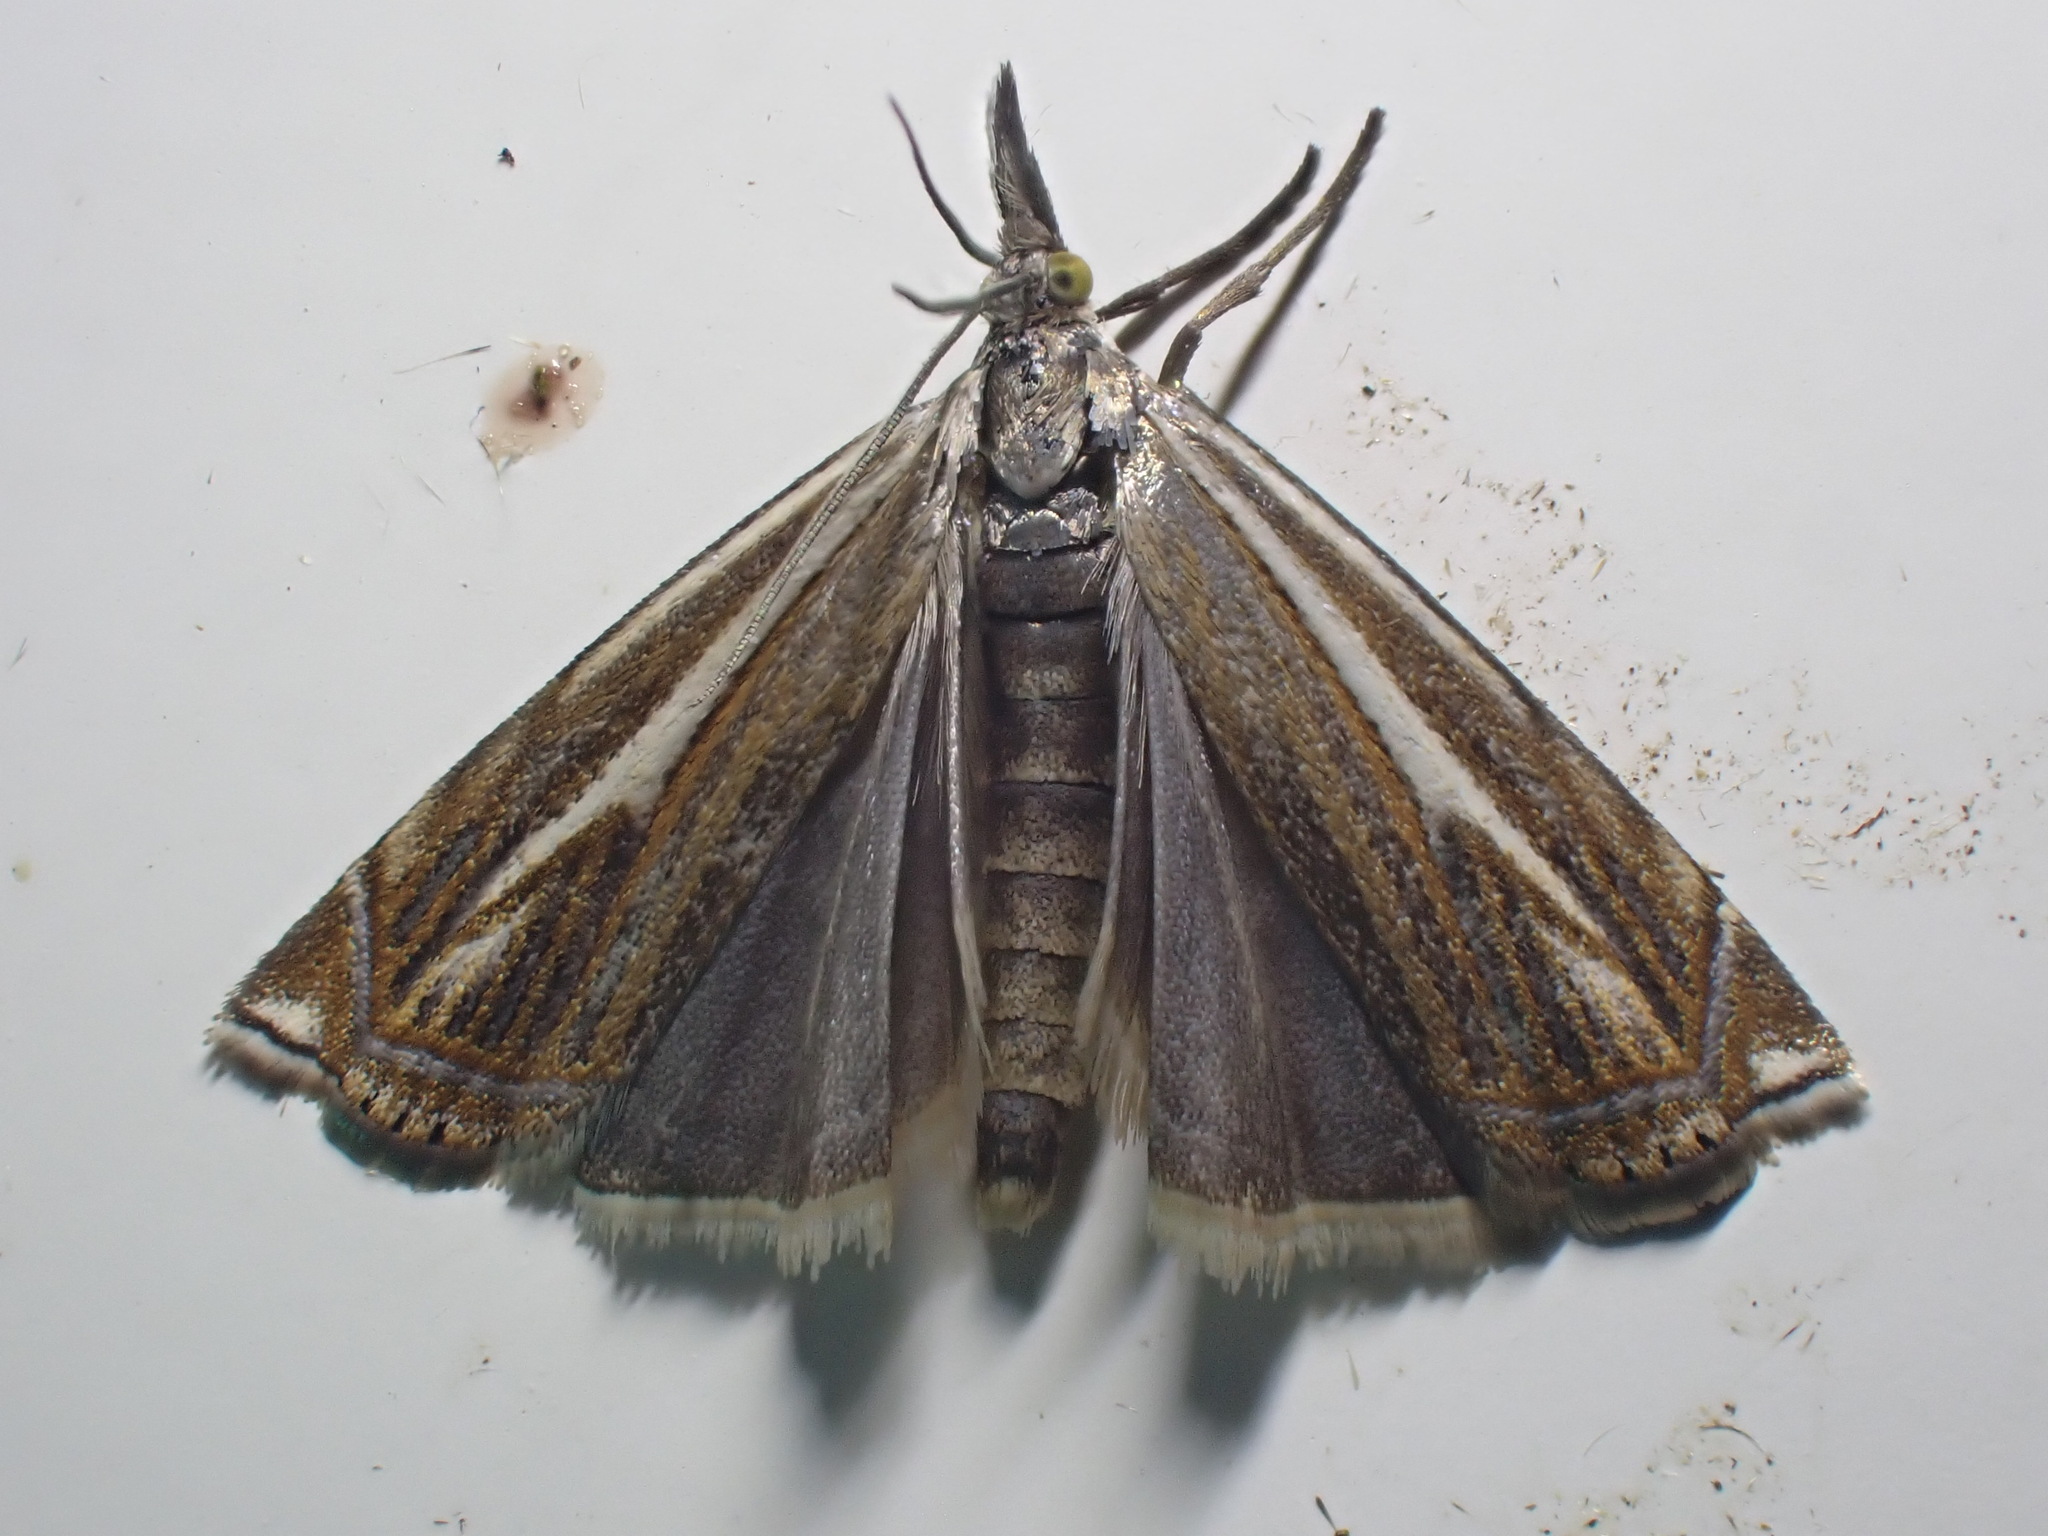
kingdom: Animalia
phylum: Arthropoda
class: Insecta
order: Lepidoptera
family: Crambidae
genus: Crambus
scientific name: Crambus nemorella
